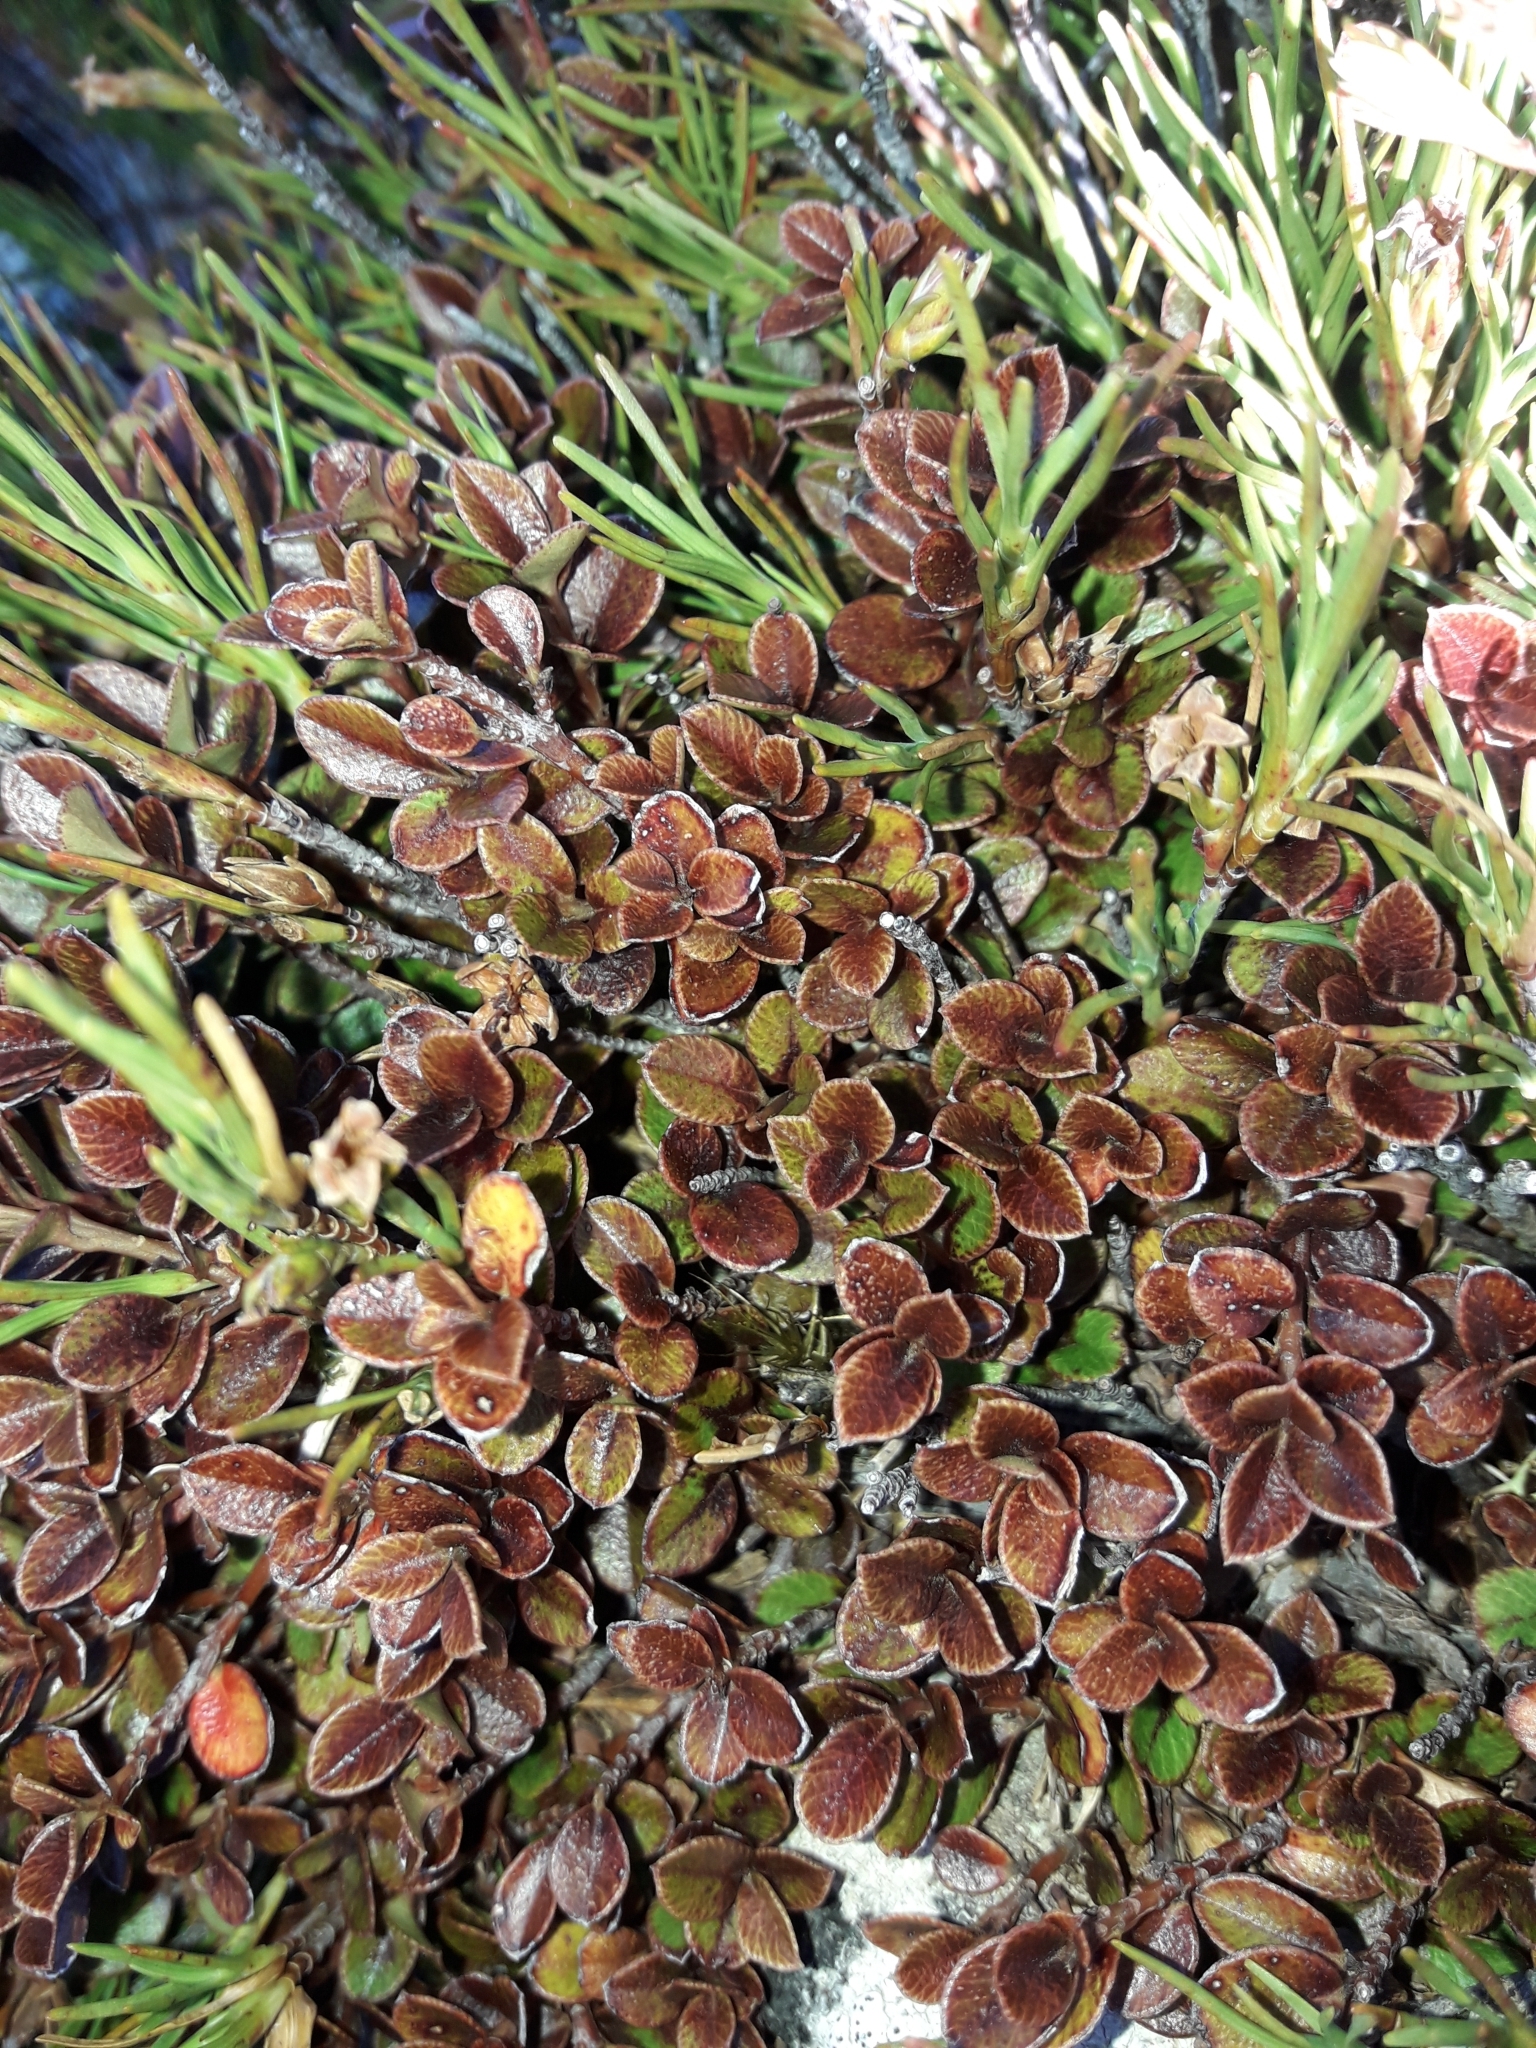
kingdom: Plantae
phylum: Tracheophyta
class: Magnoliopsida
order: Ericales
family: Primulaceae
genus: Myrsine
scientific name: Myrsine nummularia
